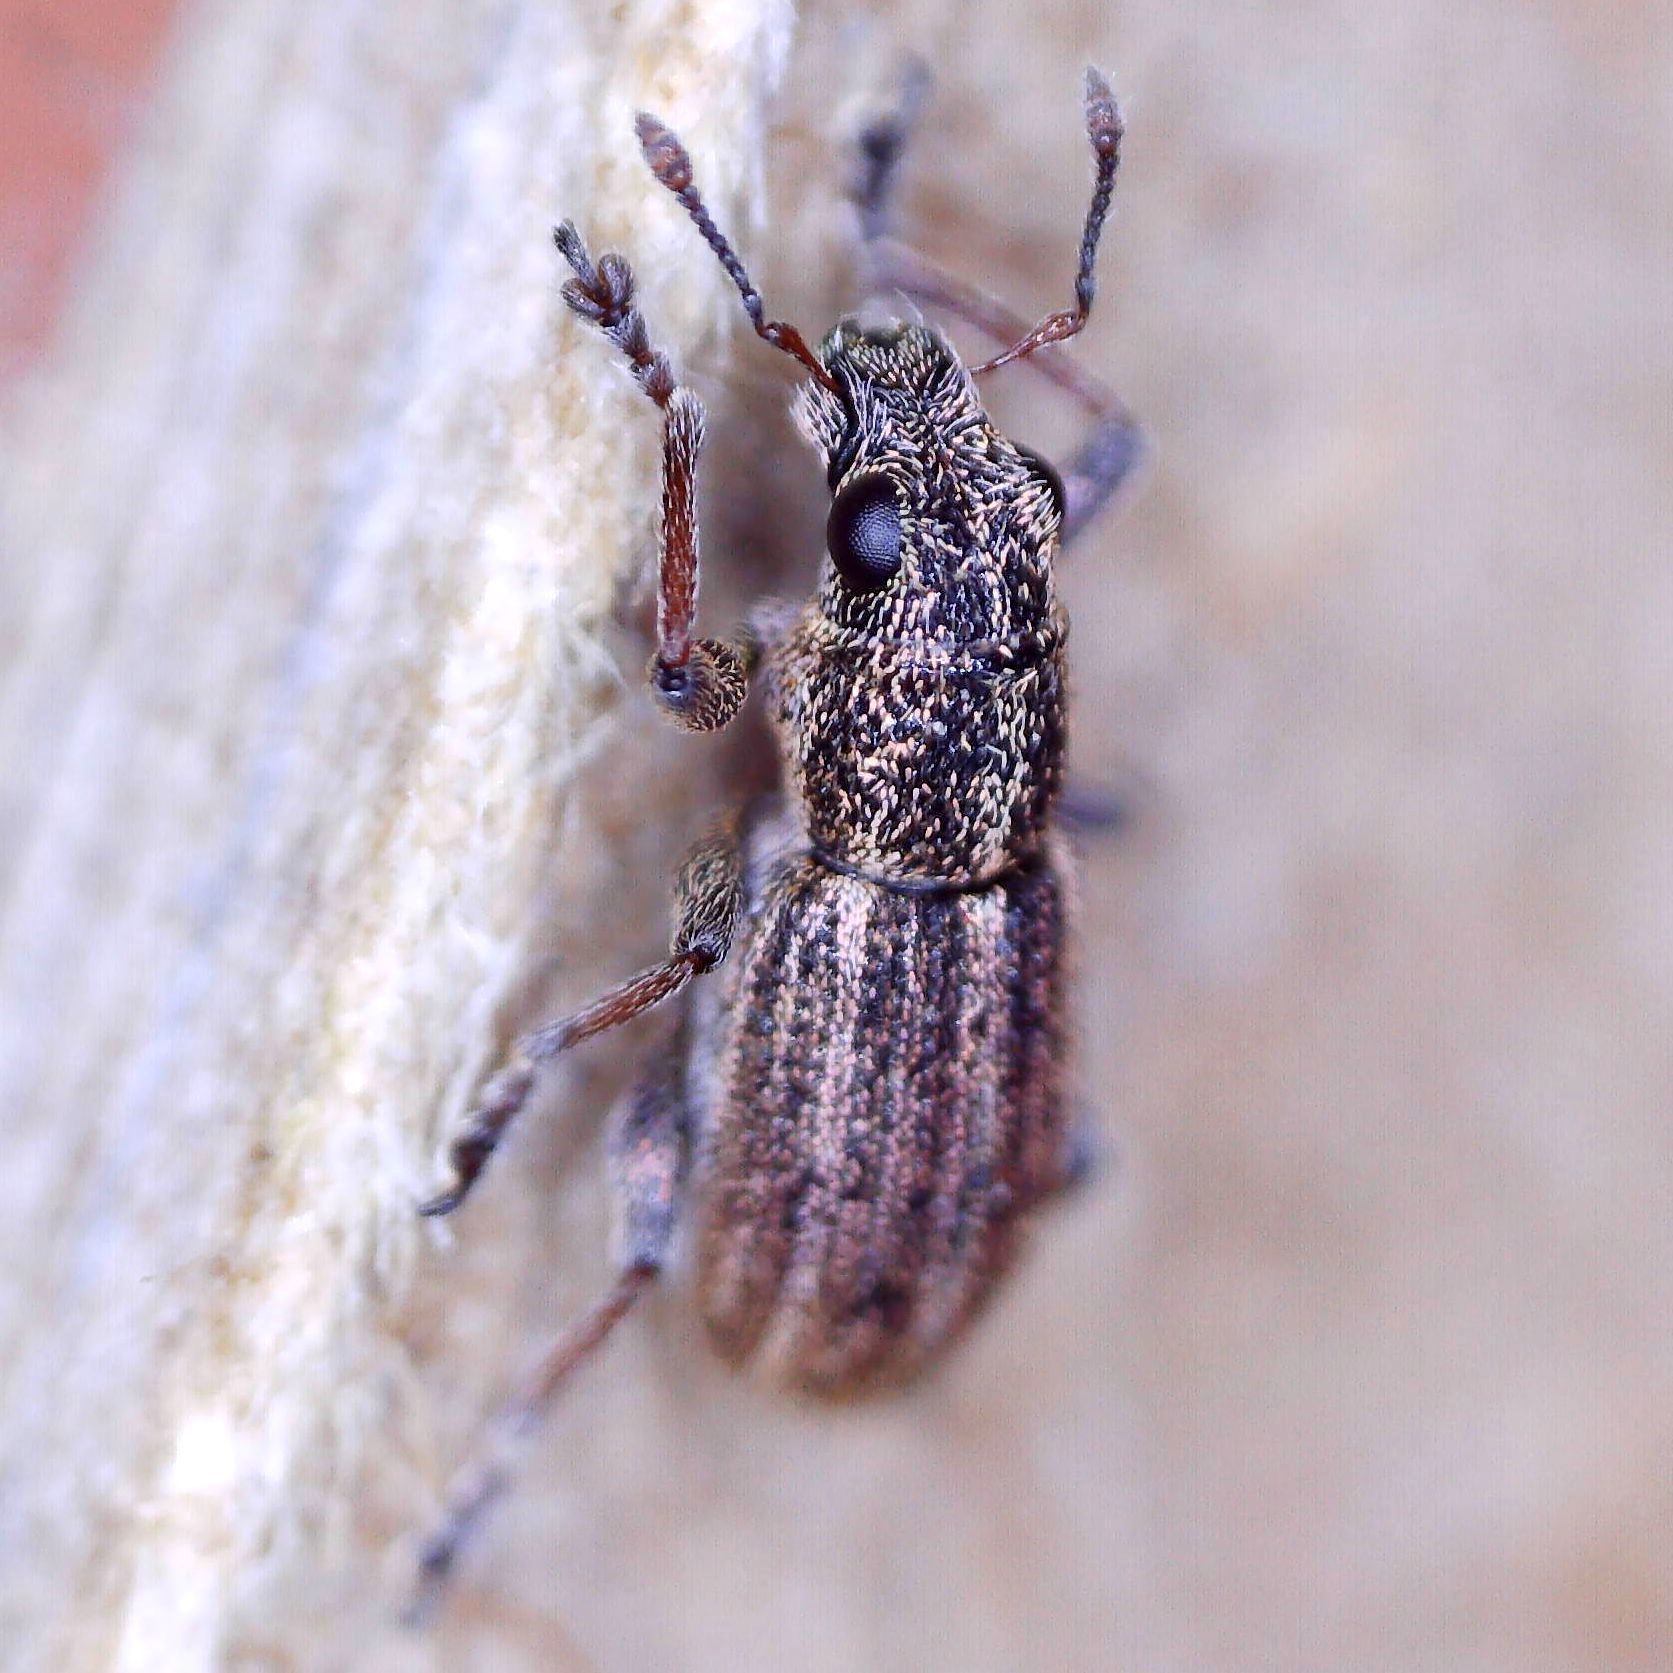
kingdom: Animalia
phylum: Arthropoda
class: Insecta
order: Coleoptera
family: Curculionidae
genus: Sitona
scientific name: Sitona striatellus
